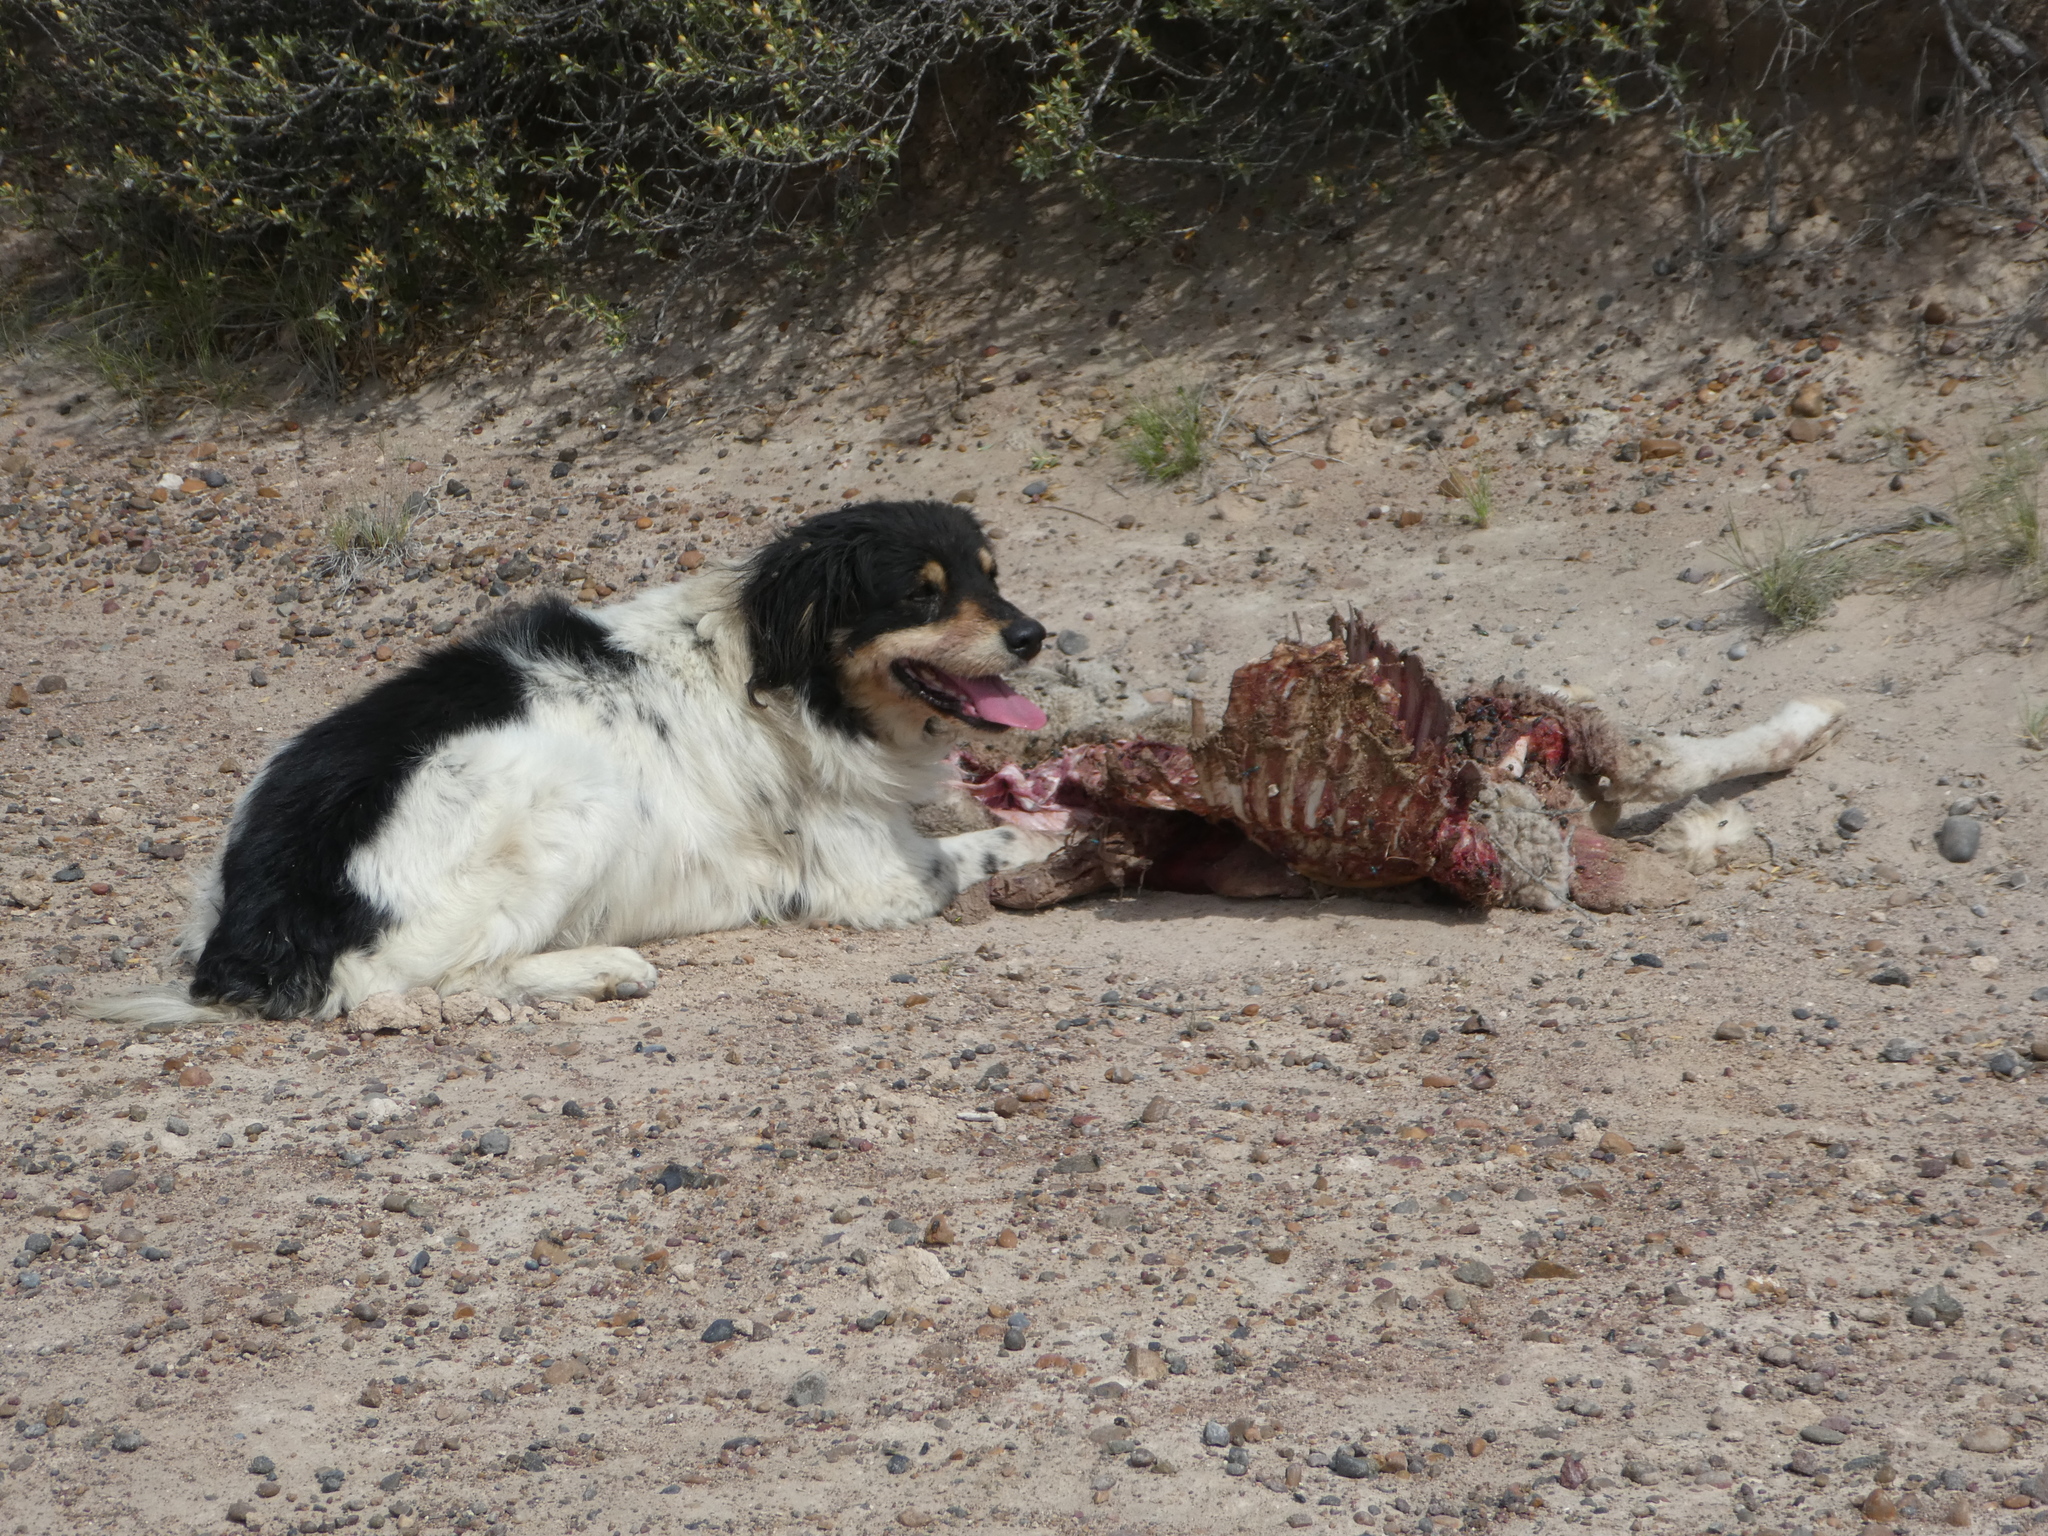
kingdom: Animalia
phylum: Chordata
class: Mammalia
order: Carnivora
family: Canidae
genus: Canis
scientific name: Canis lupus
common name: Gray wolf
